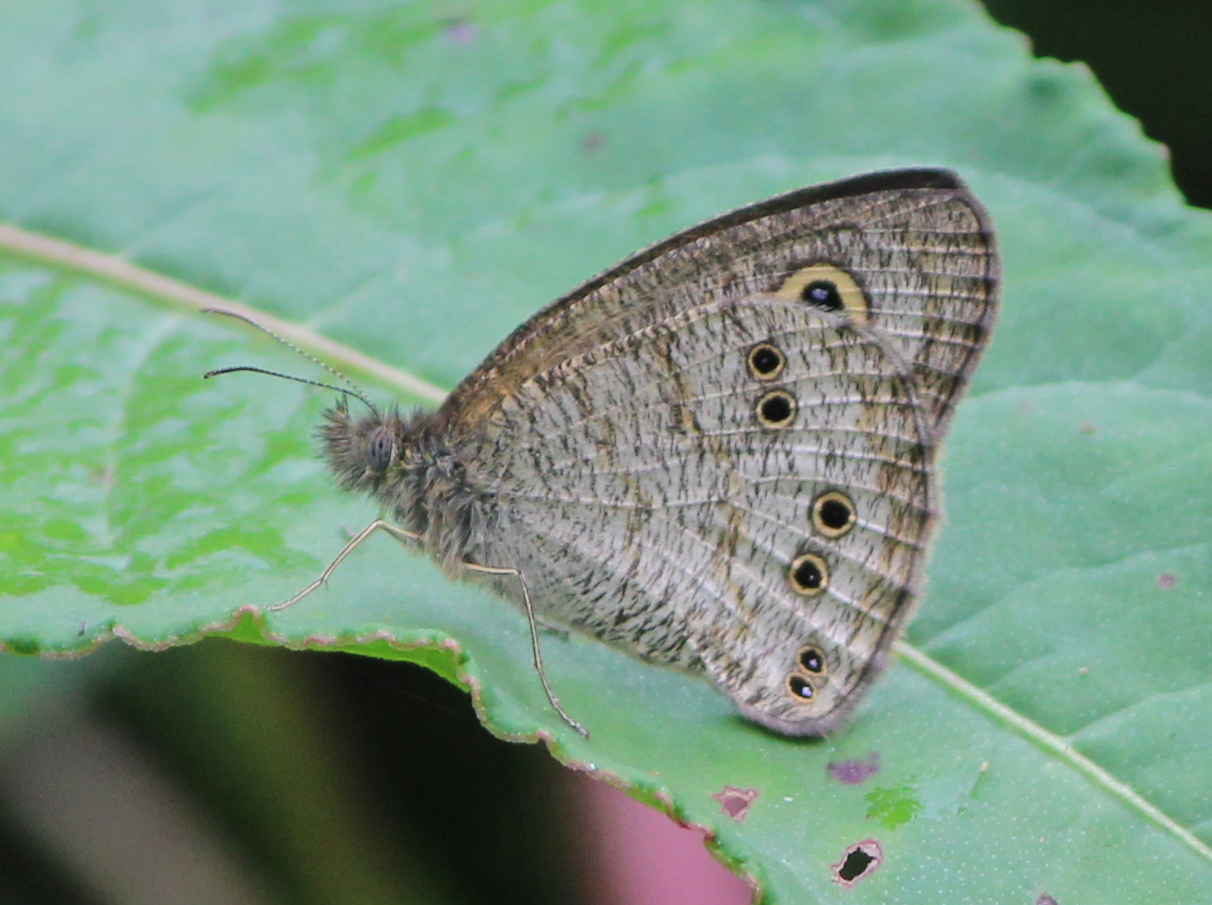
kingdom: Animalia
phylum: Arthropoda
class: Insecta
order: Lepidoptera
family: Nymphalidae
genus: Ypthima
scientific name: Ypthima baldus
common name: Common five-ring
